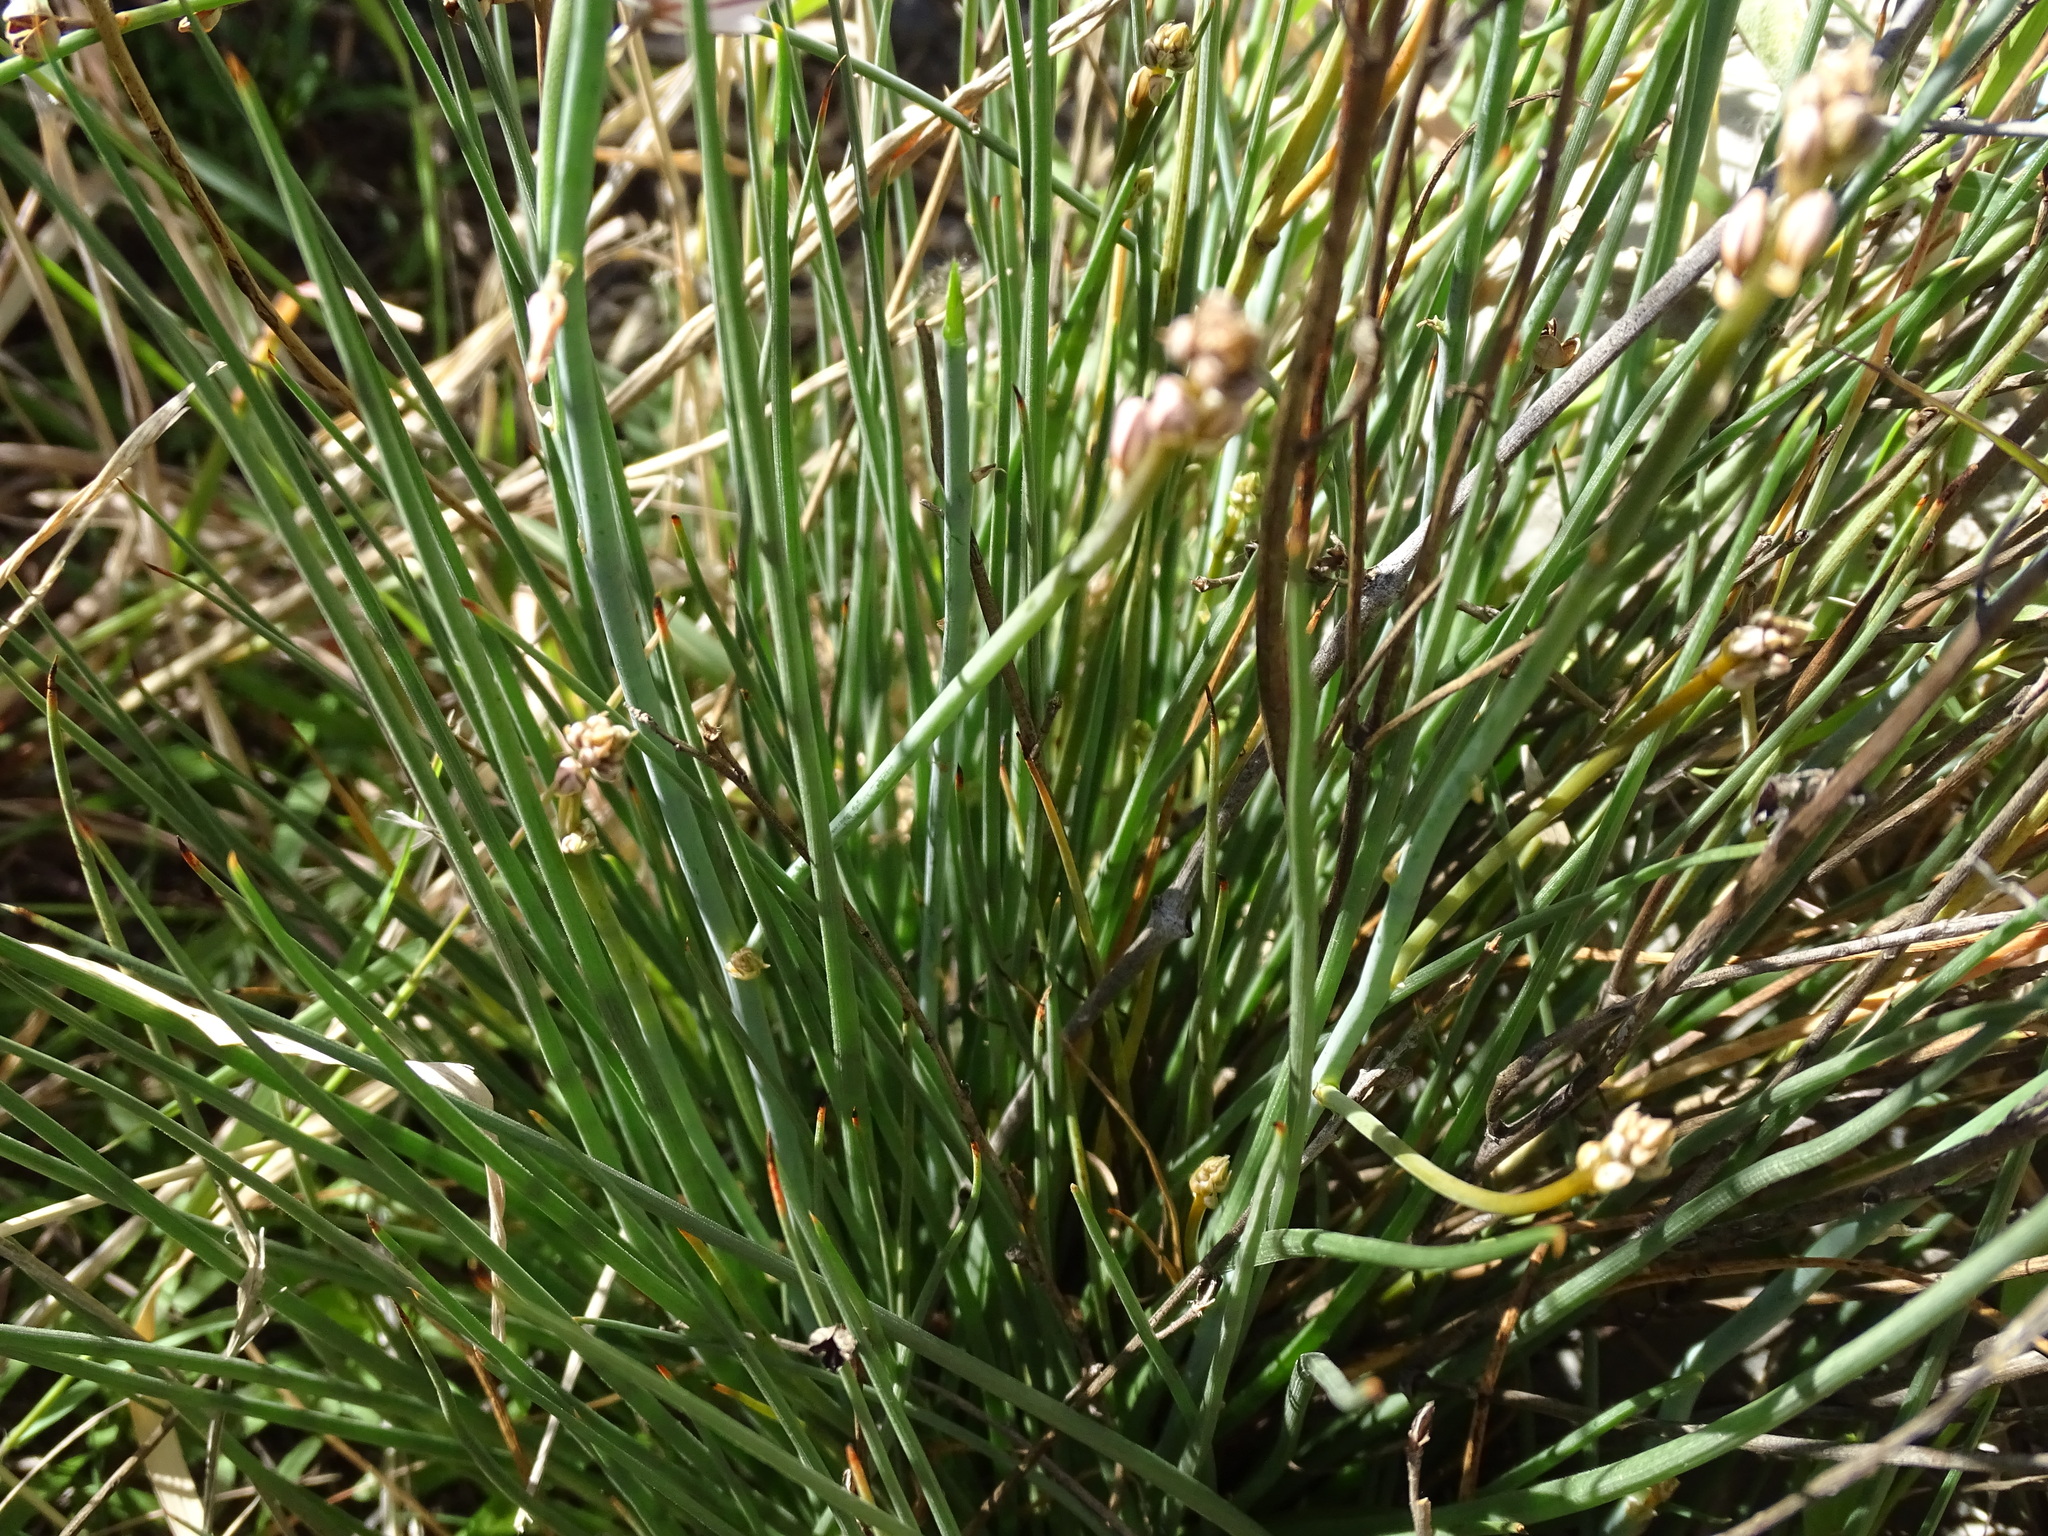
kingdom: Plantae
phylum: Tracheophyta
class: Liliopsida
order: Asparagales
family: Asphodelaceae
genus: Asphodelus
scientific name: Asphodelus fistulosus
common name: Onionweed
